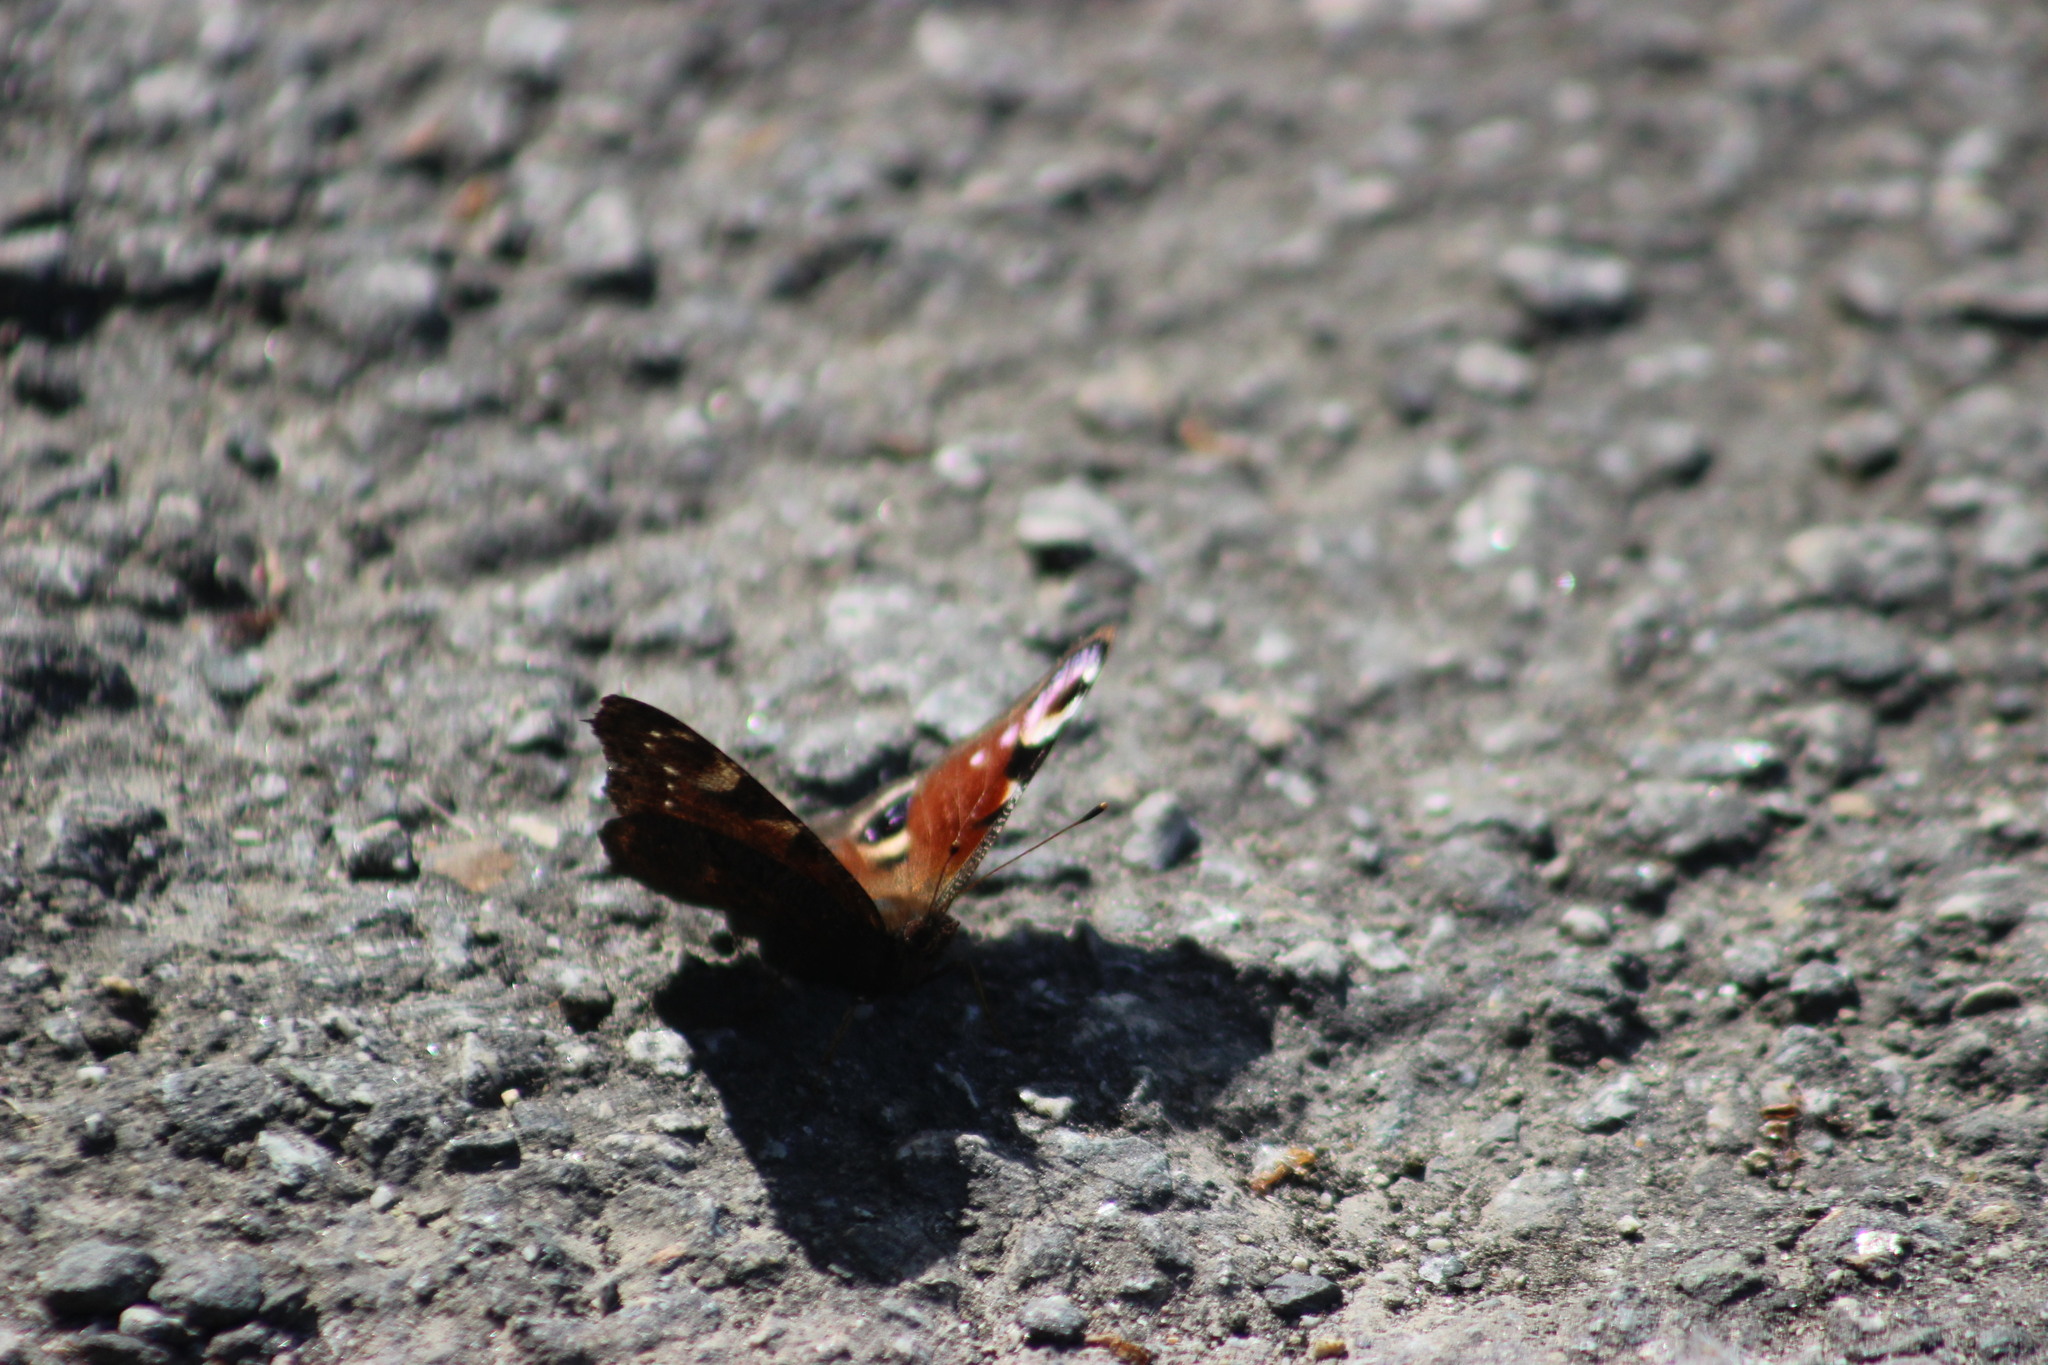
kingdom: Animalia
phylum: Arthropoda
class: Insecta
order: Lepidoptera
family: Nymphalidae
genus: Aglais
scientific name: Aglais io
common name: Peacock
